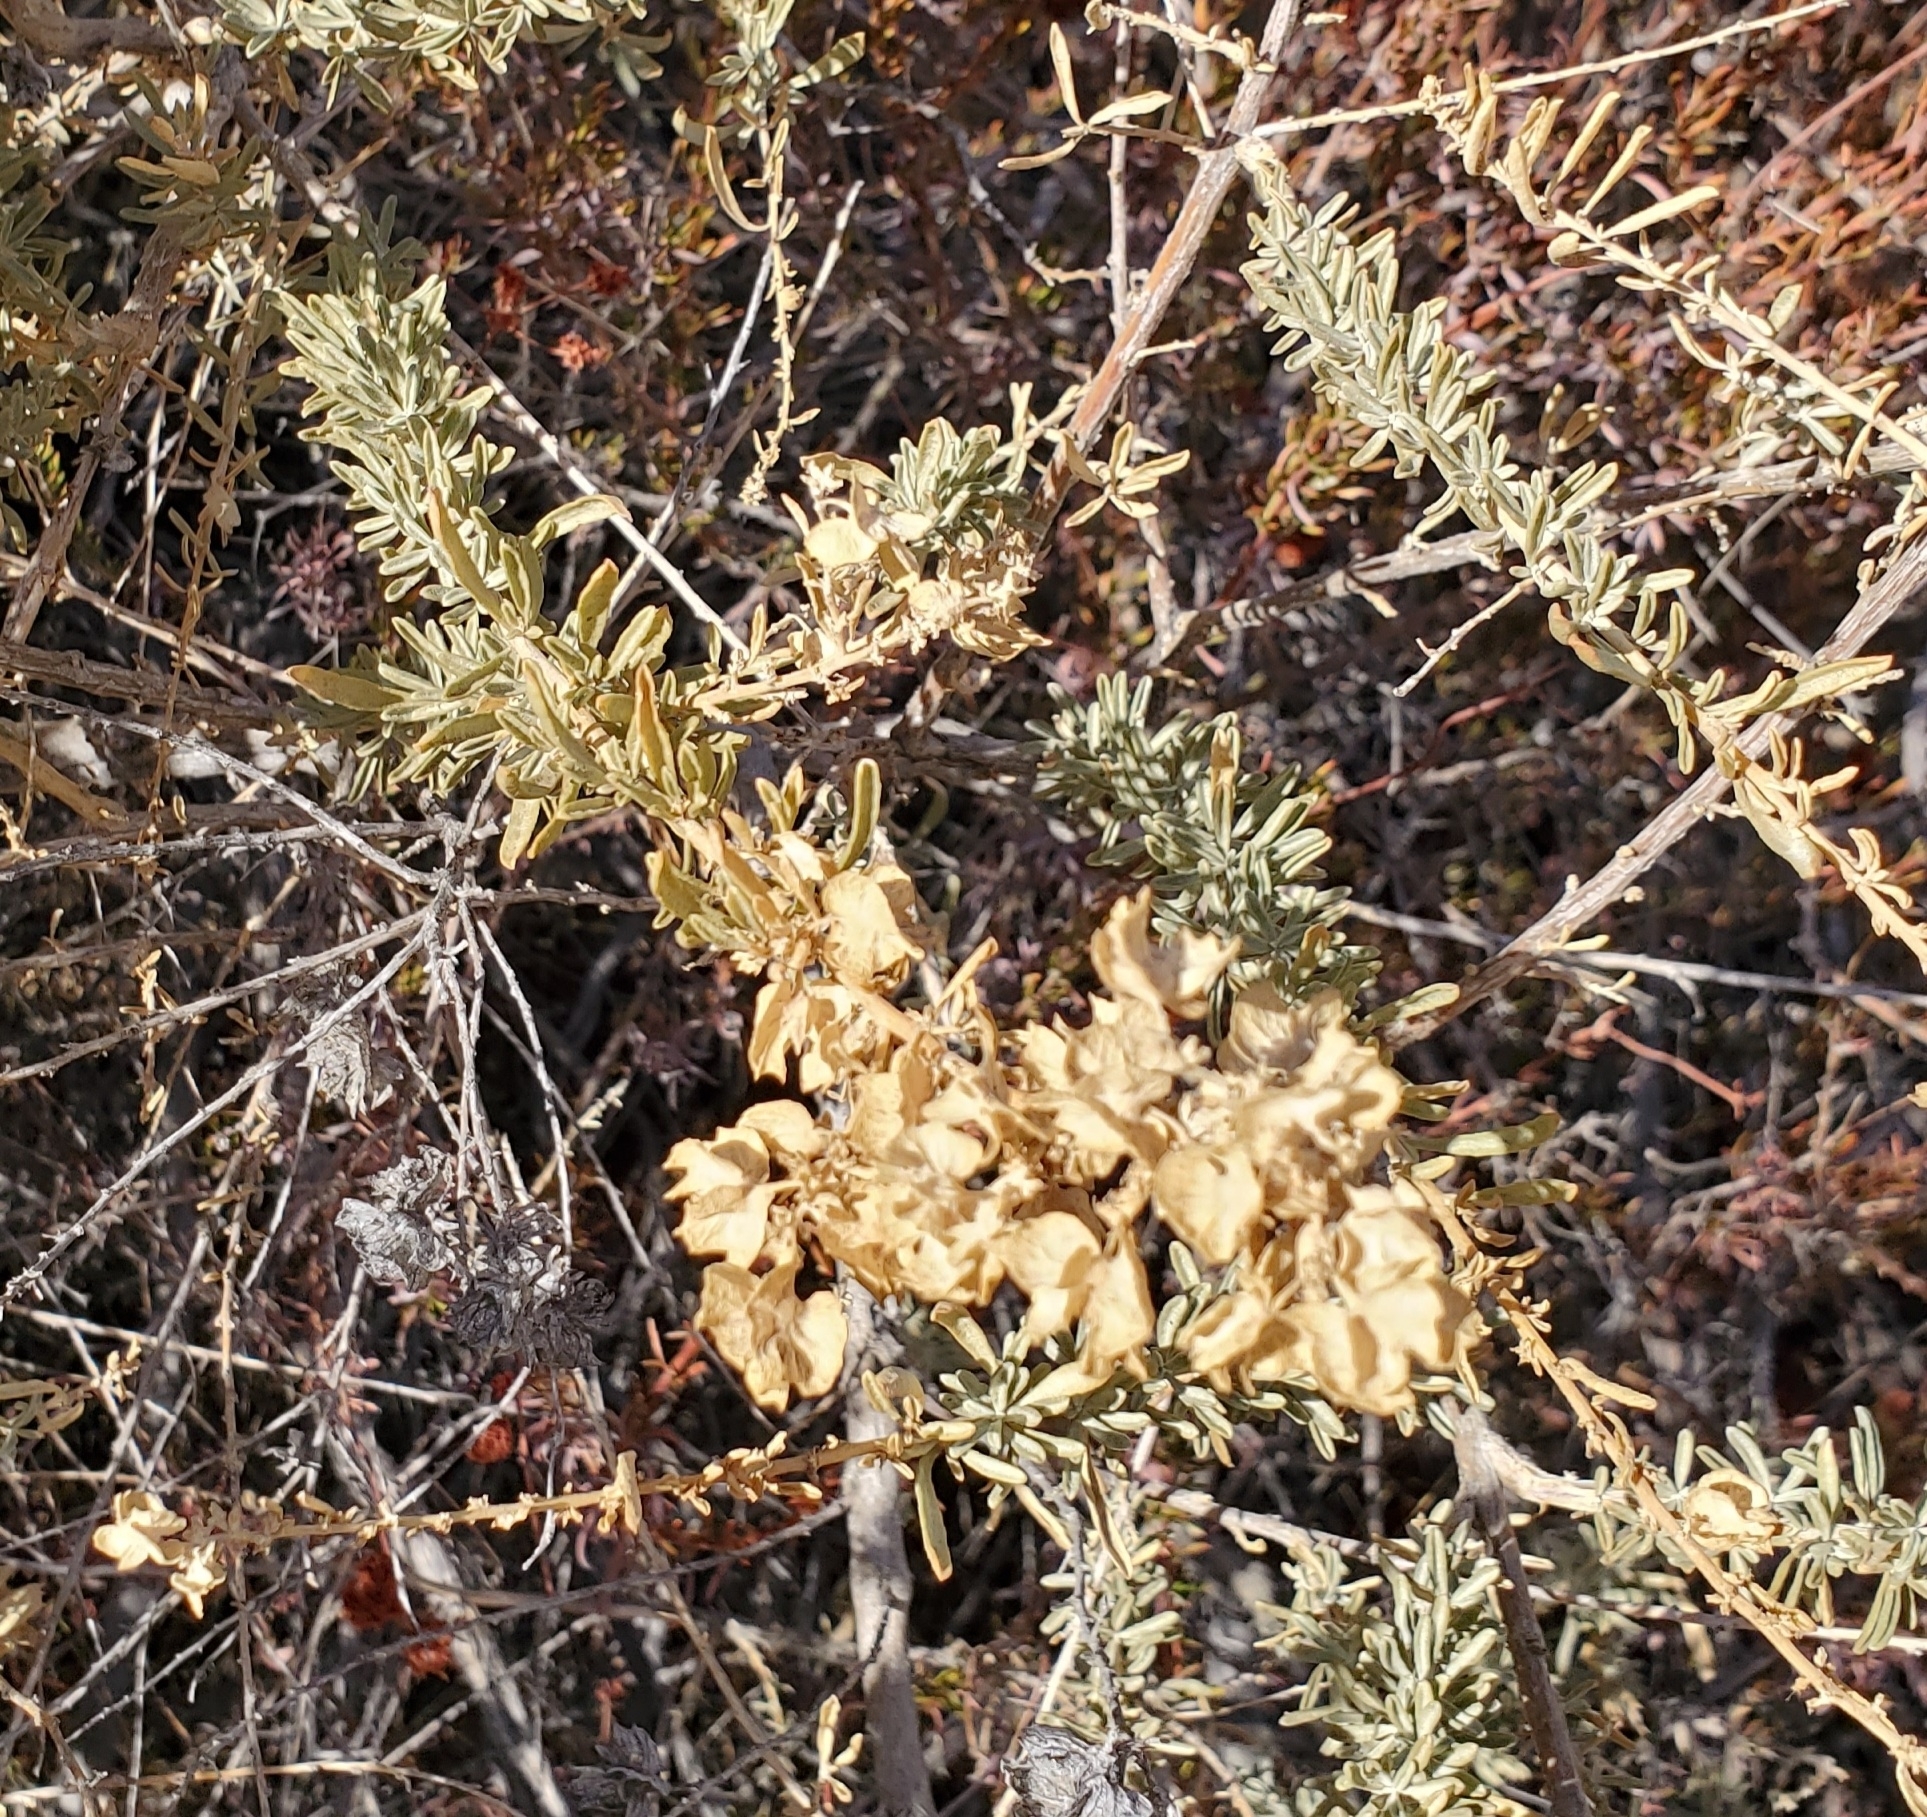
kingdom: Plantae
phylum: Tracheophyta
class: Magnoliopsida
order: Caryophyllales
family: Amaranthaceae
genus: Atriplex
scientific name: Atriplex canescens
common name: Four-wing saltbush
